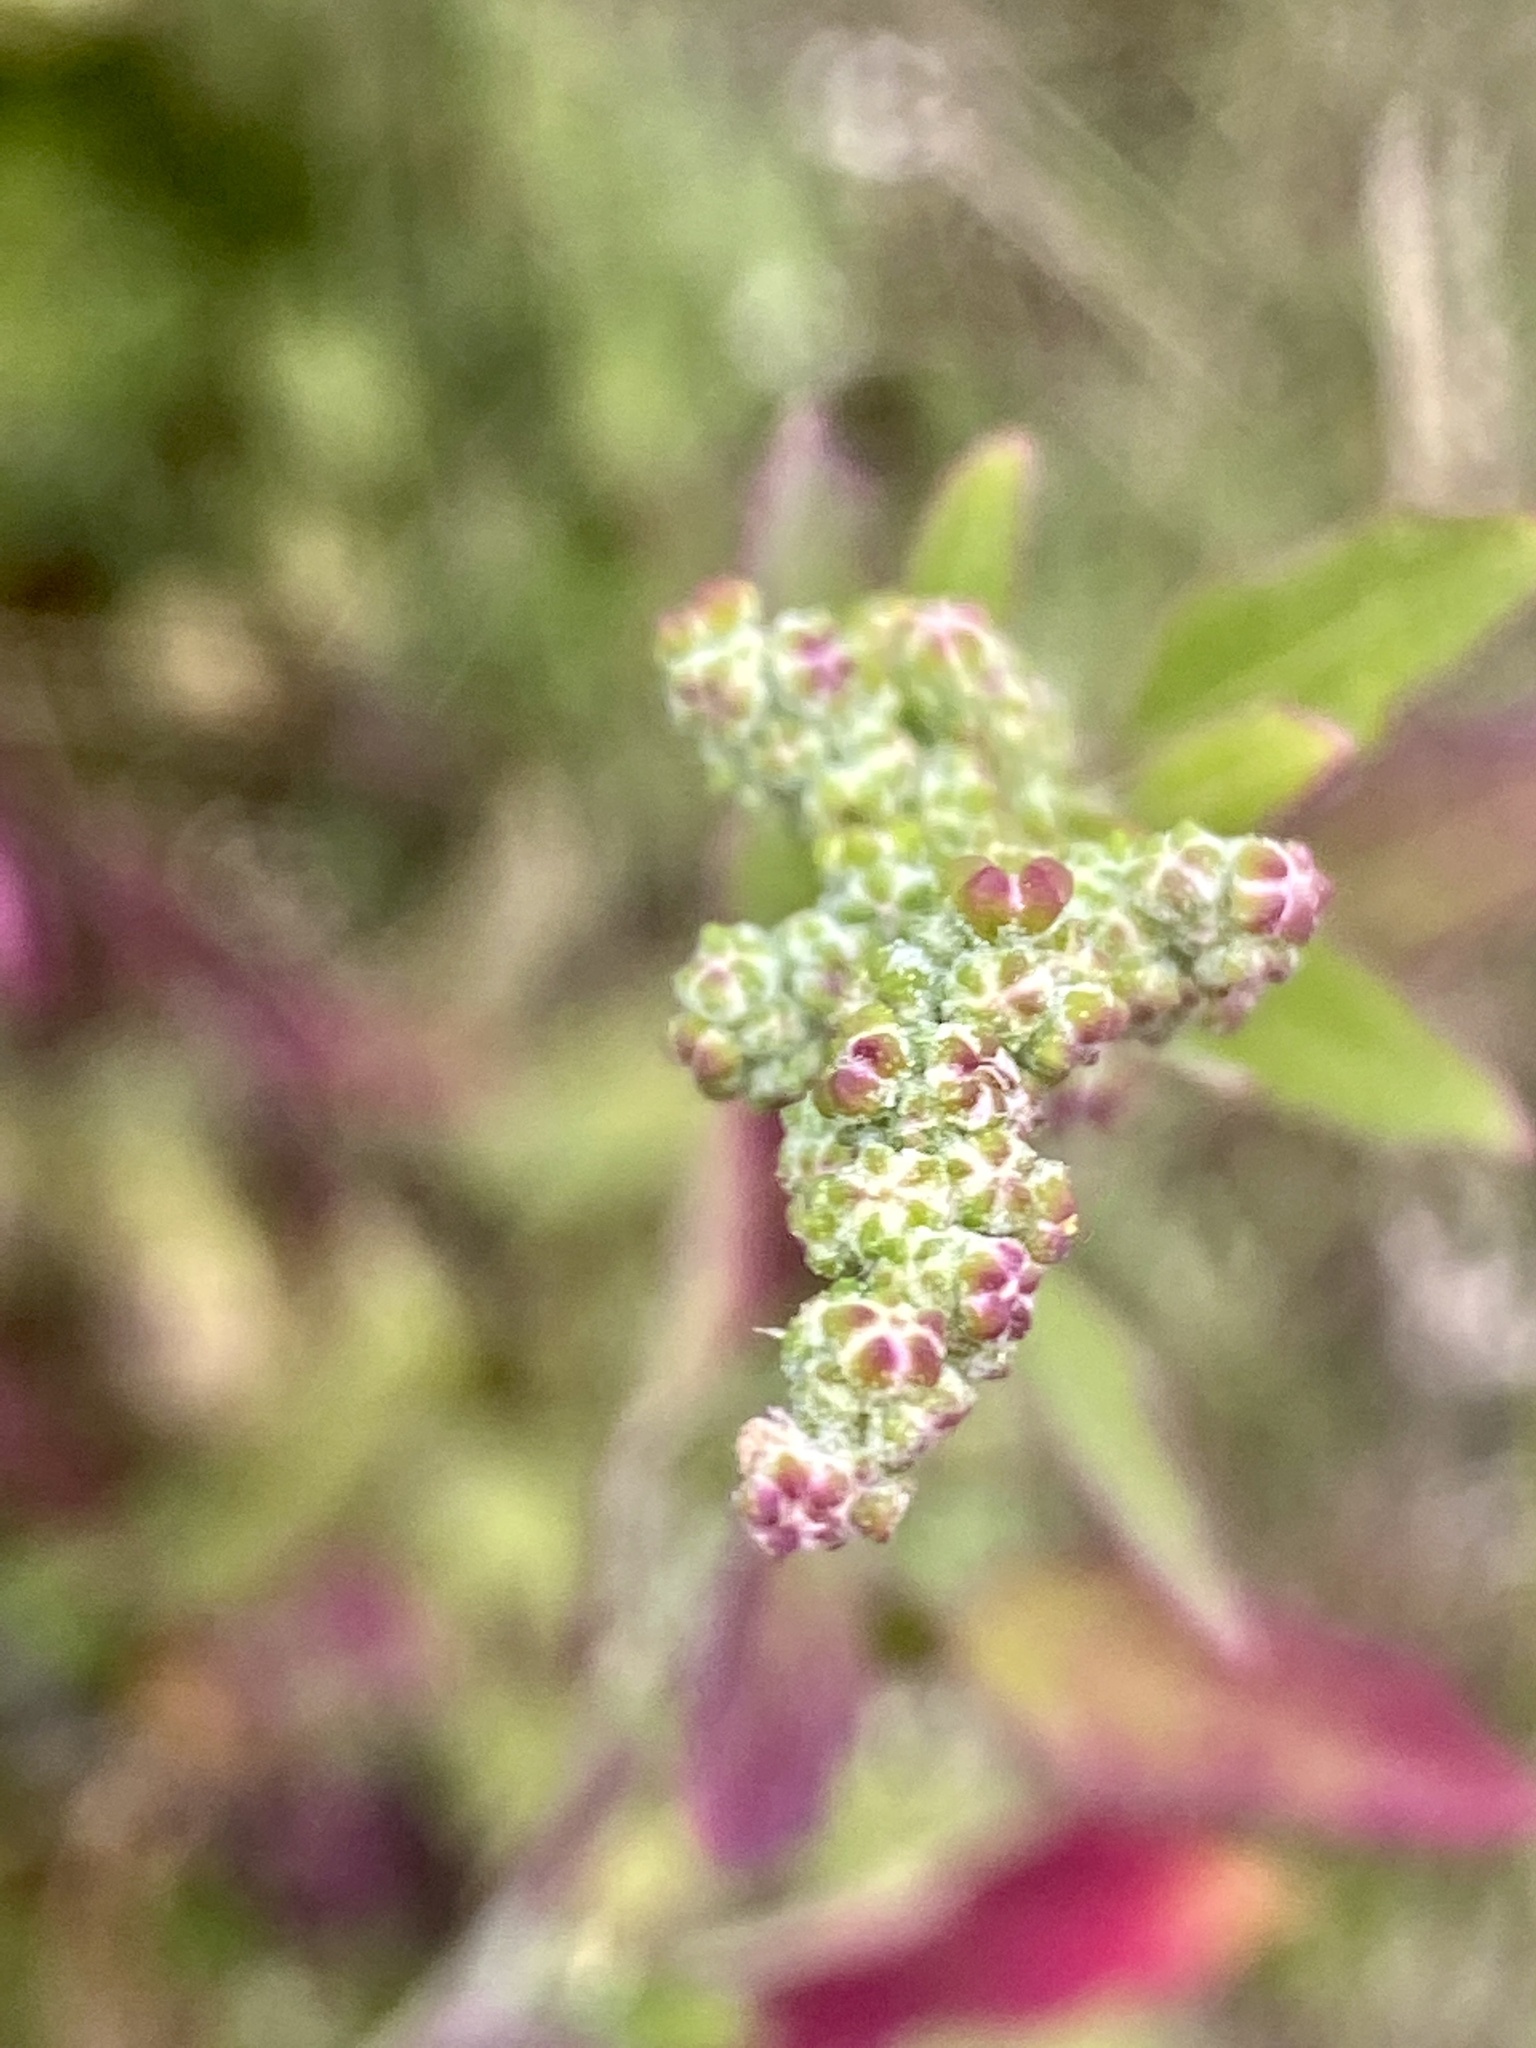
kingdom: Plantae
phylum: Tracheophyta
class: Magnoliopsida
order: Caryophyllales
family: Amaranthaceae
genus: Chenopodium
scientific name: Chenopodium album
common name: Fat-hen
